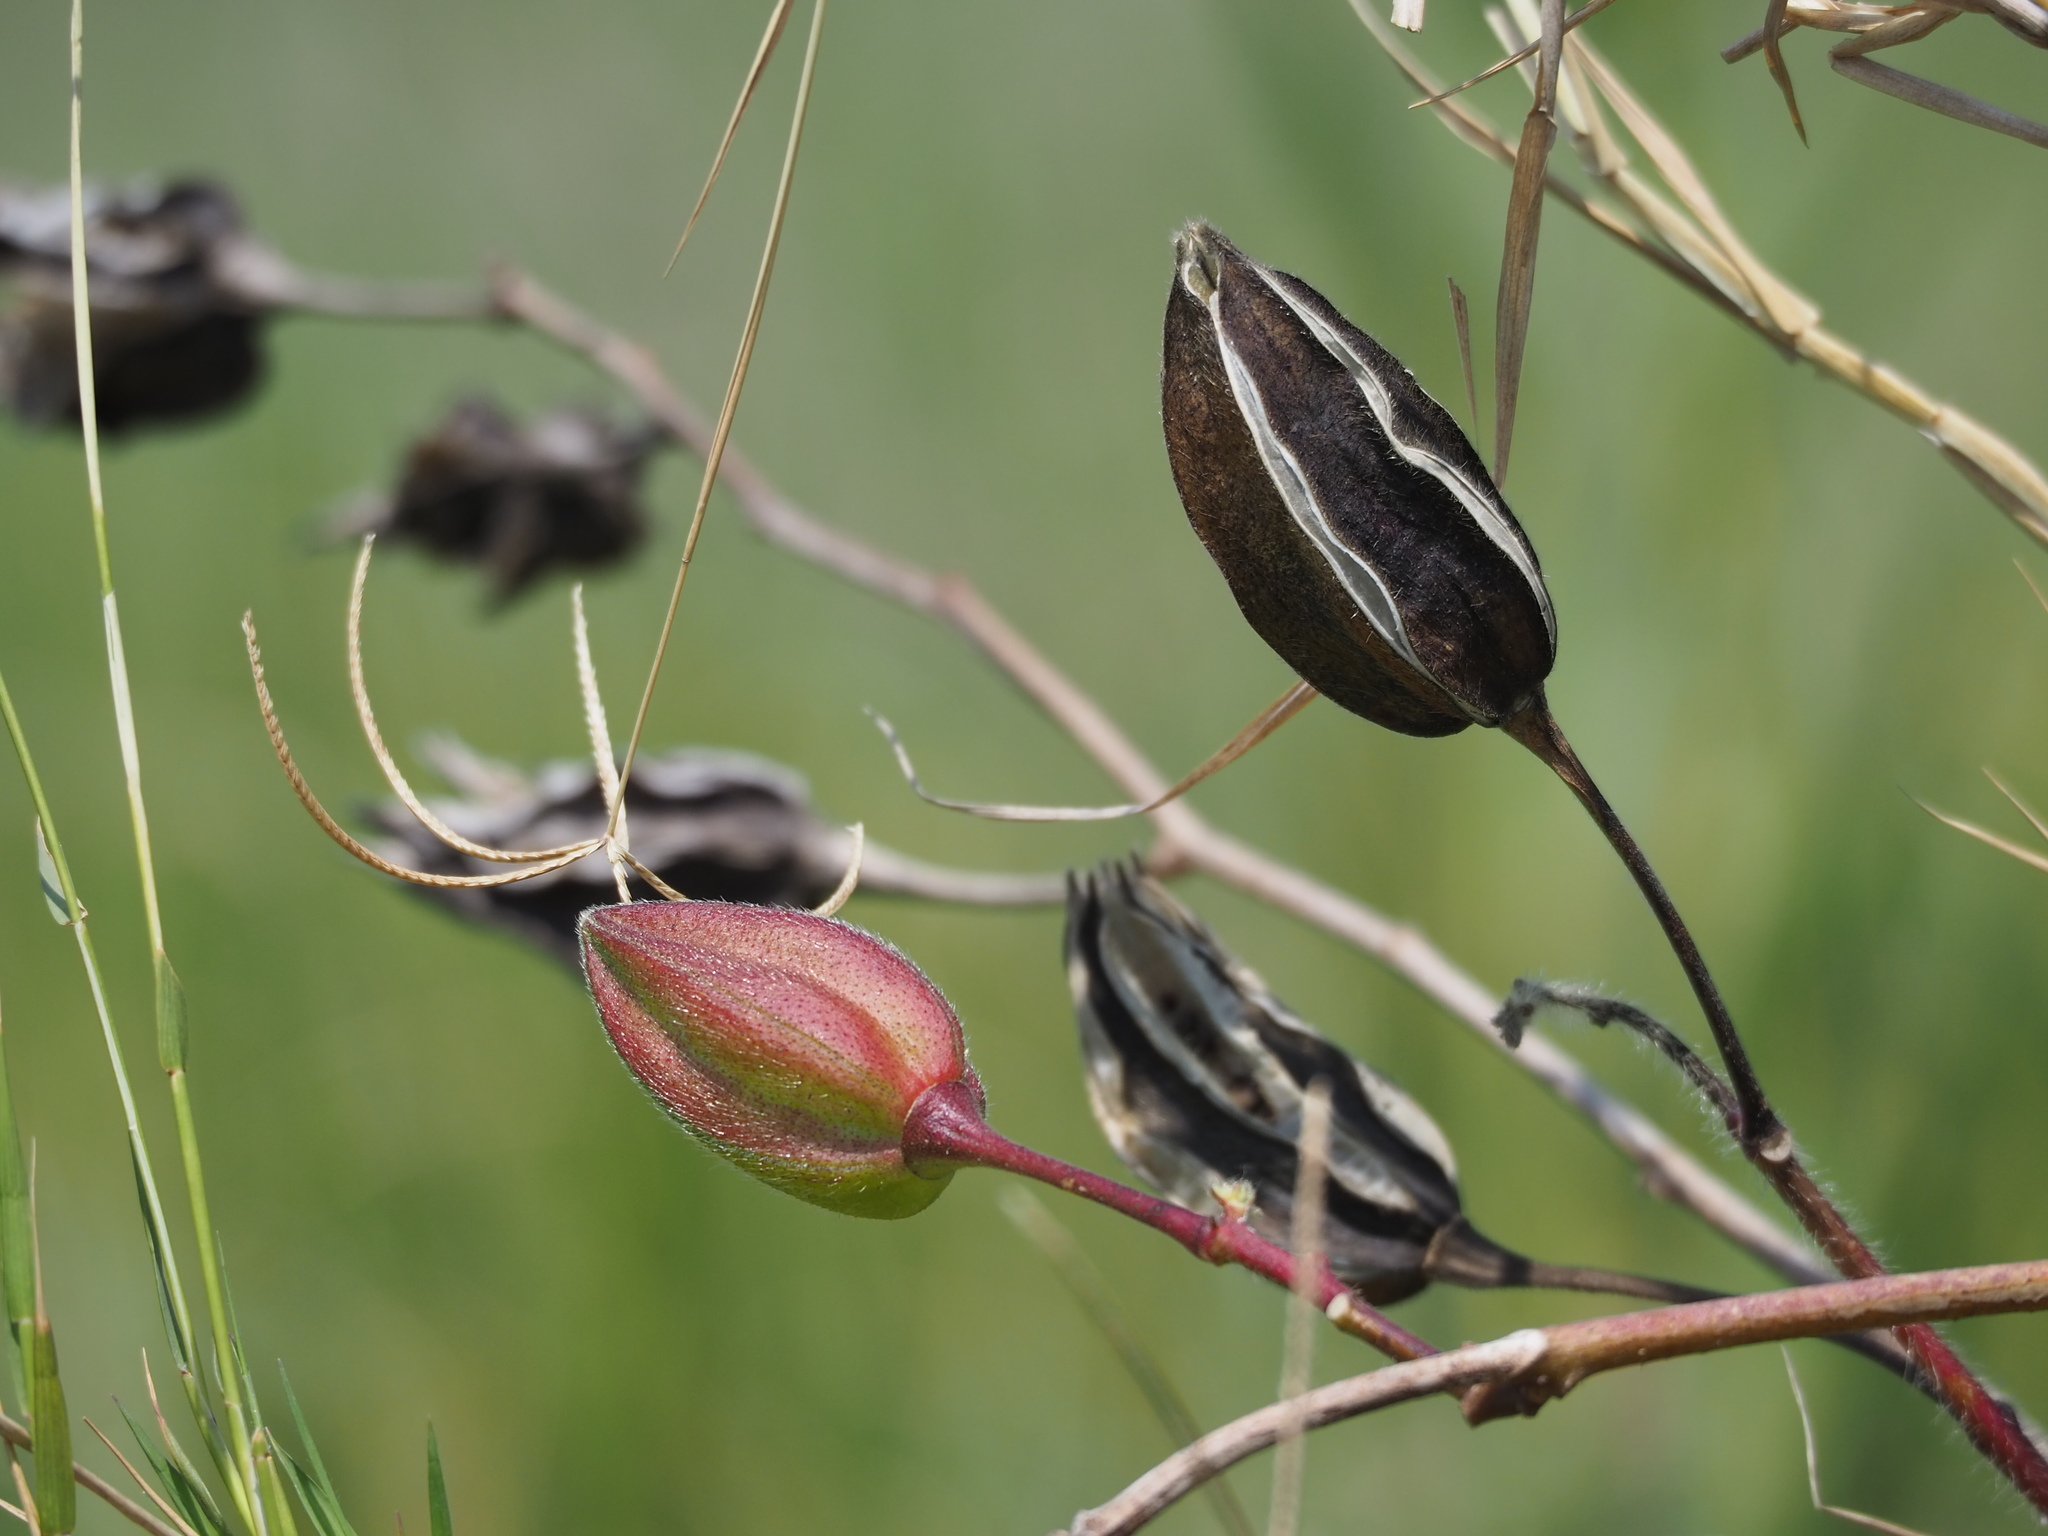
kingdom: Plantae
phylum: Tracheophyta
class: Magnoliopsida
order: Malvales
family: Malvaceae
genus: Abelmoschus
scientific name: Abelmoschus moschatus
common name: Musk okra
